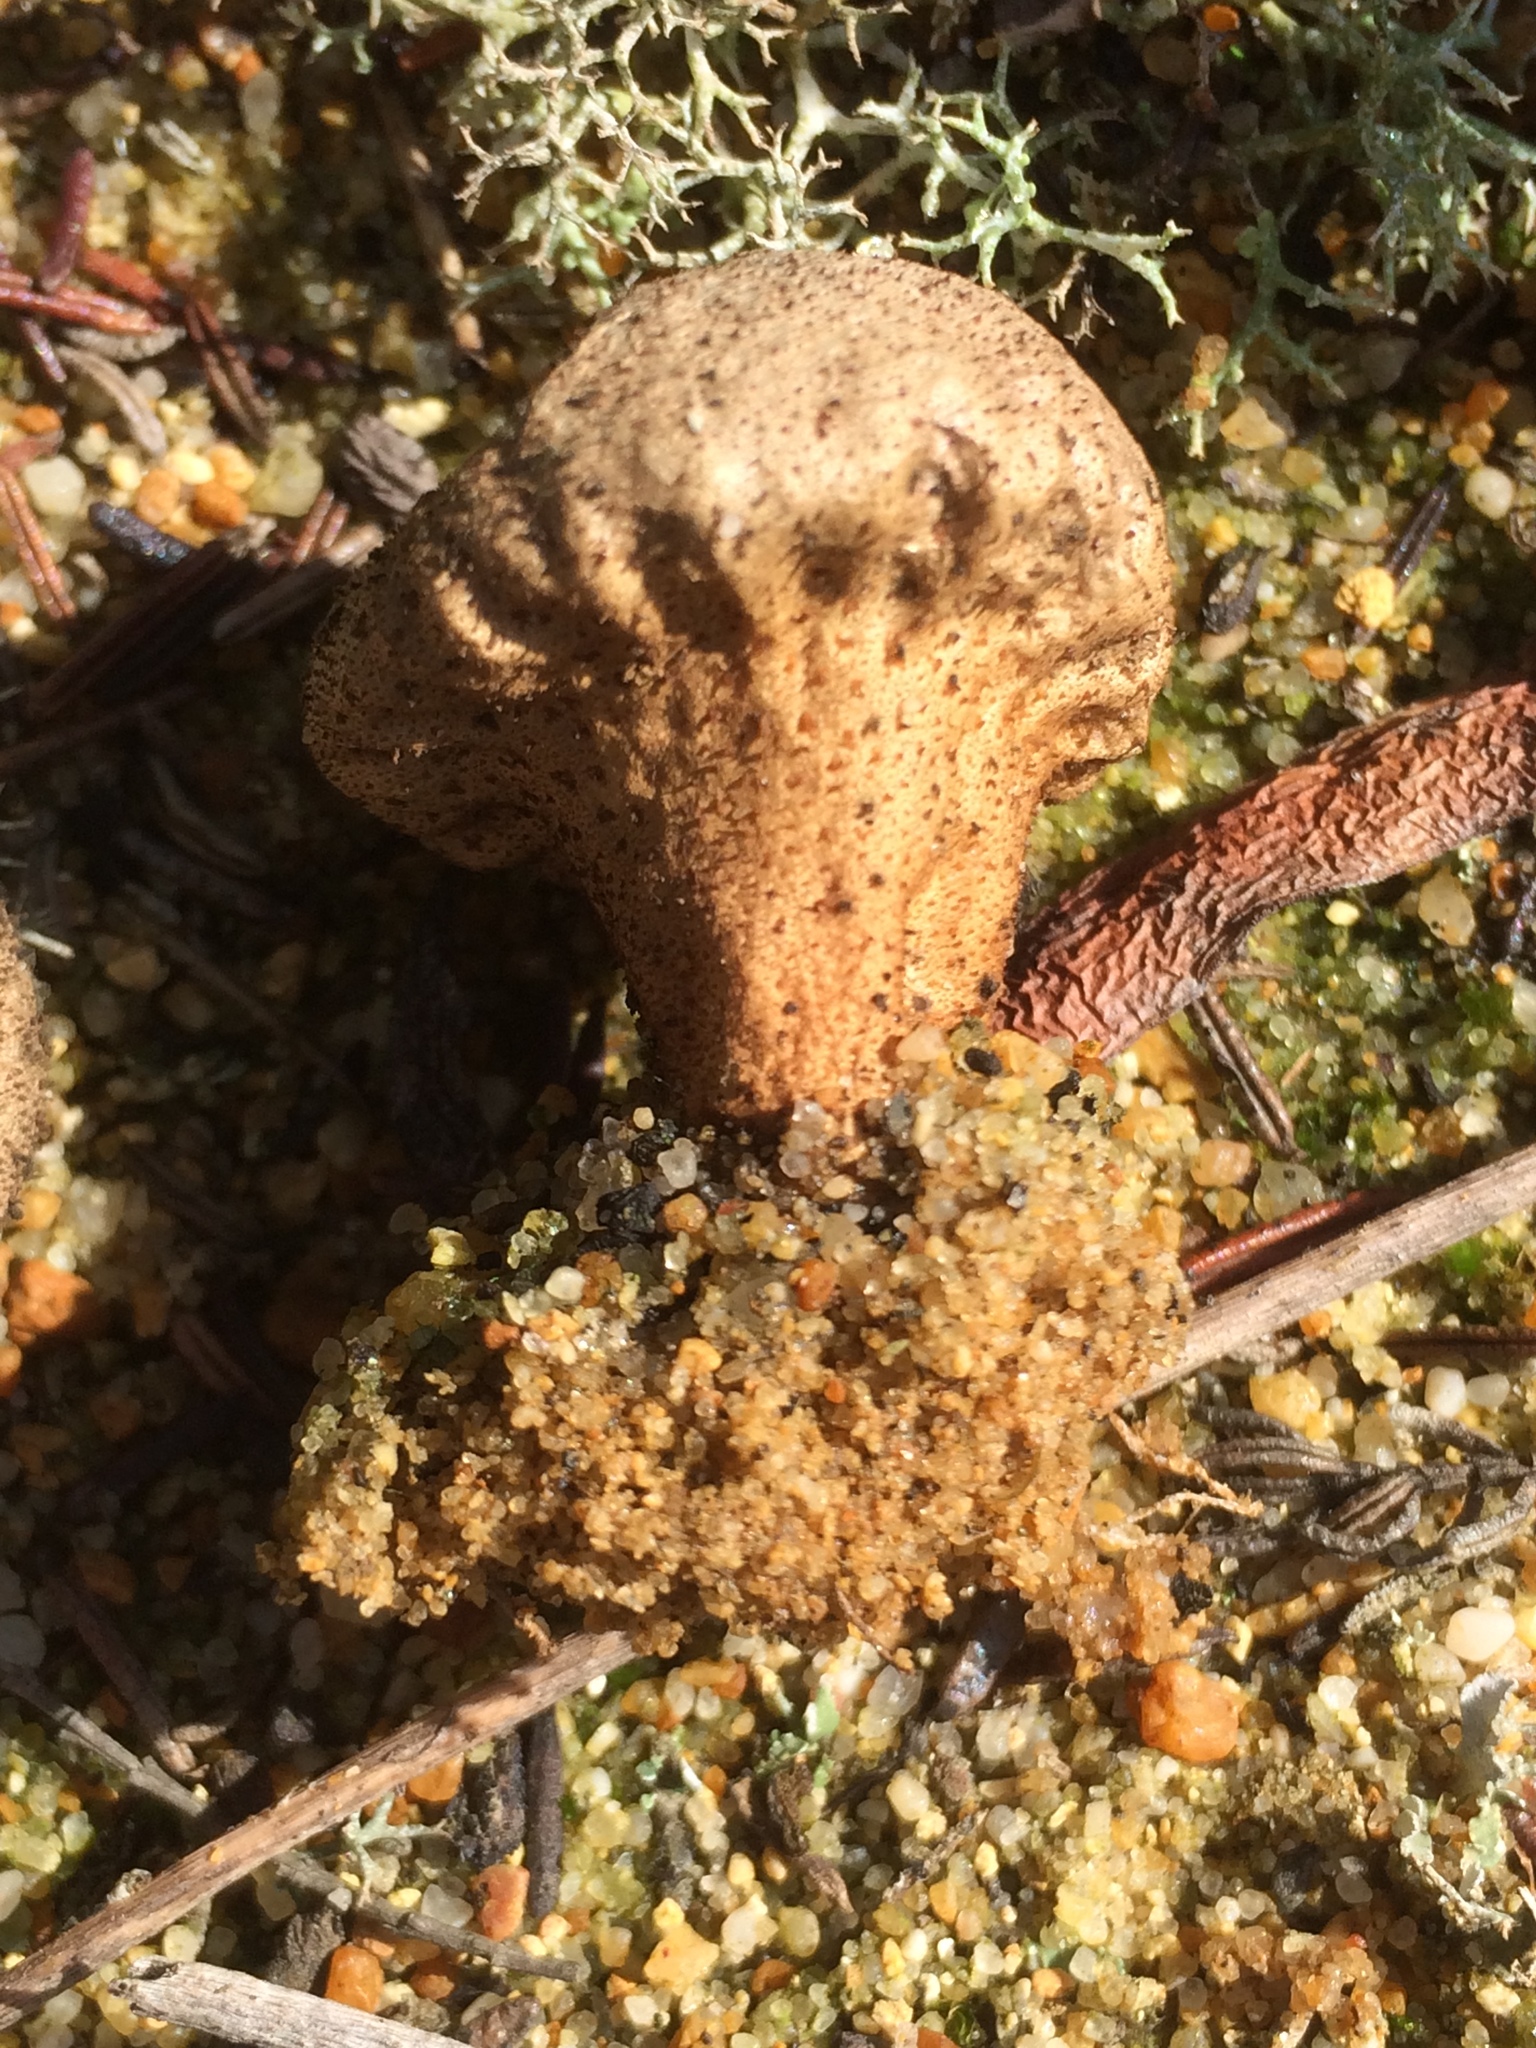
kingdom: Fungi
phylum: Basidiomycota
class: Agaricomycetes
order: Agaricales
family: Lycoperdaceae
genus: Lycoperdon
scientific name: Lycoperdon perlatum
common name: Common puffball
